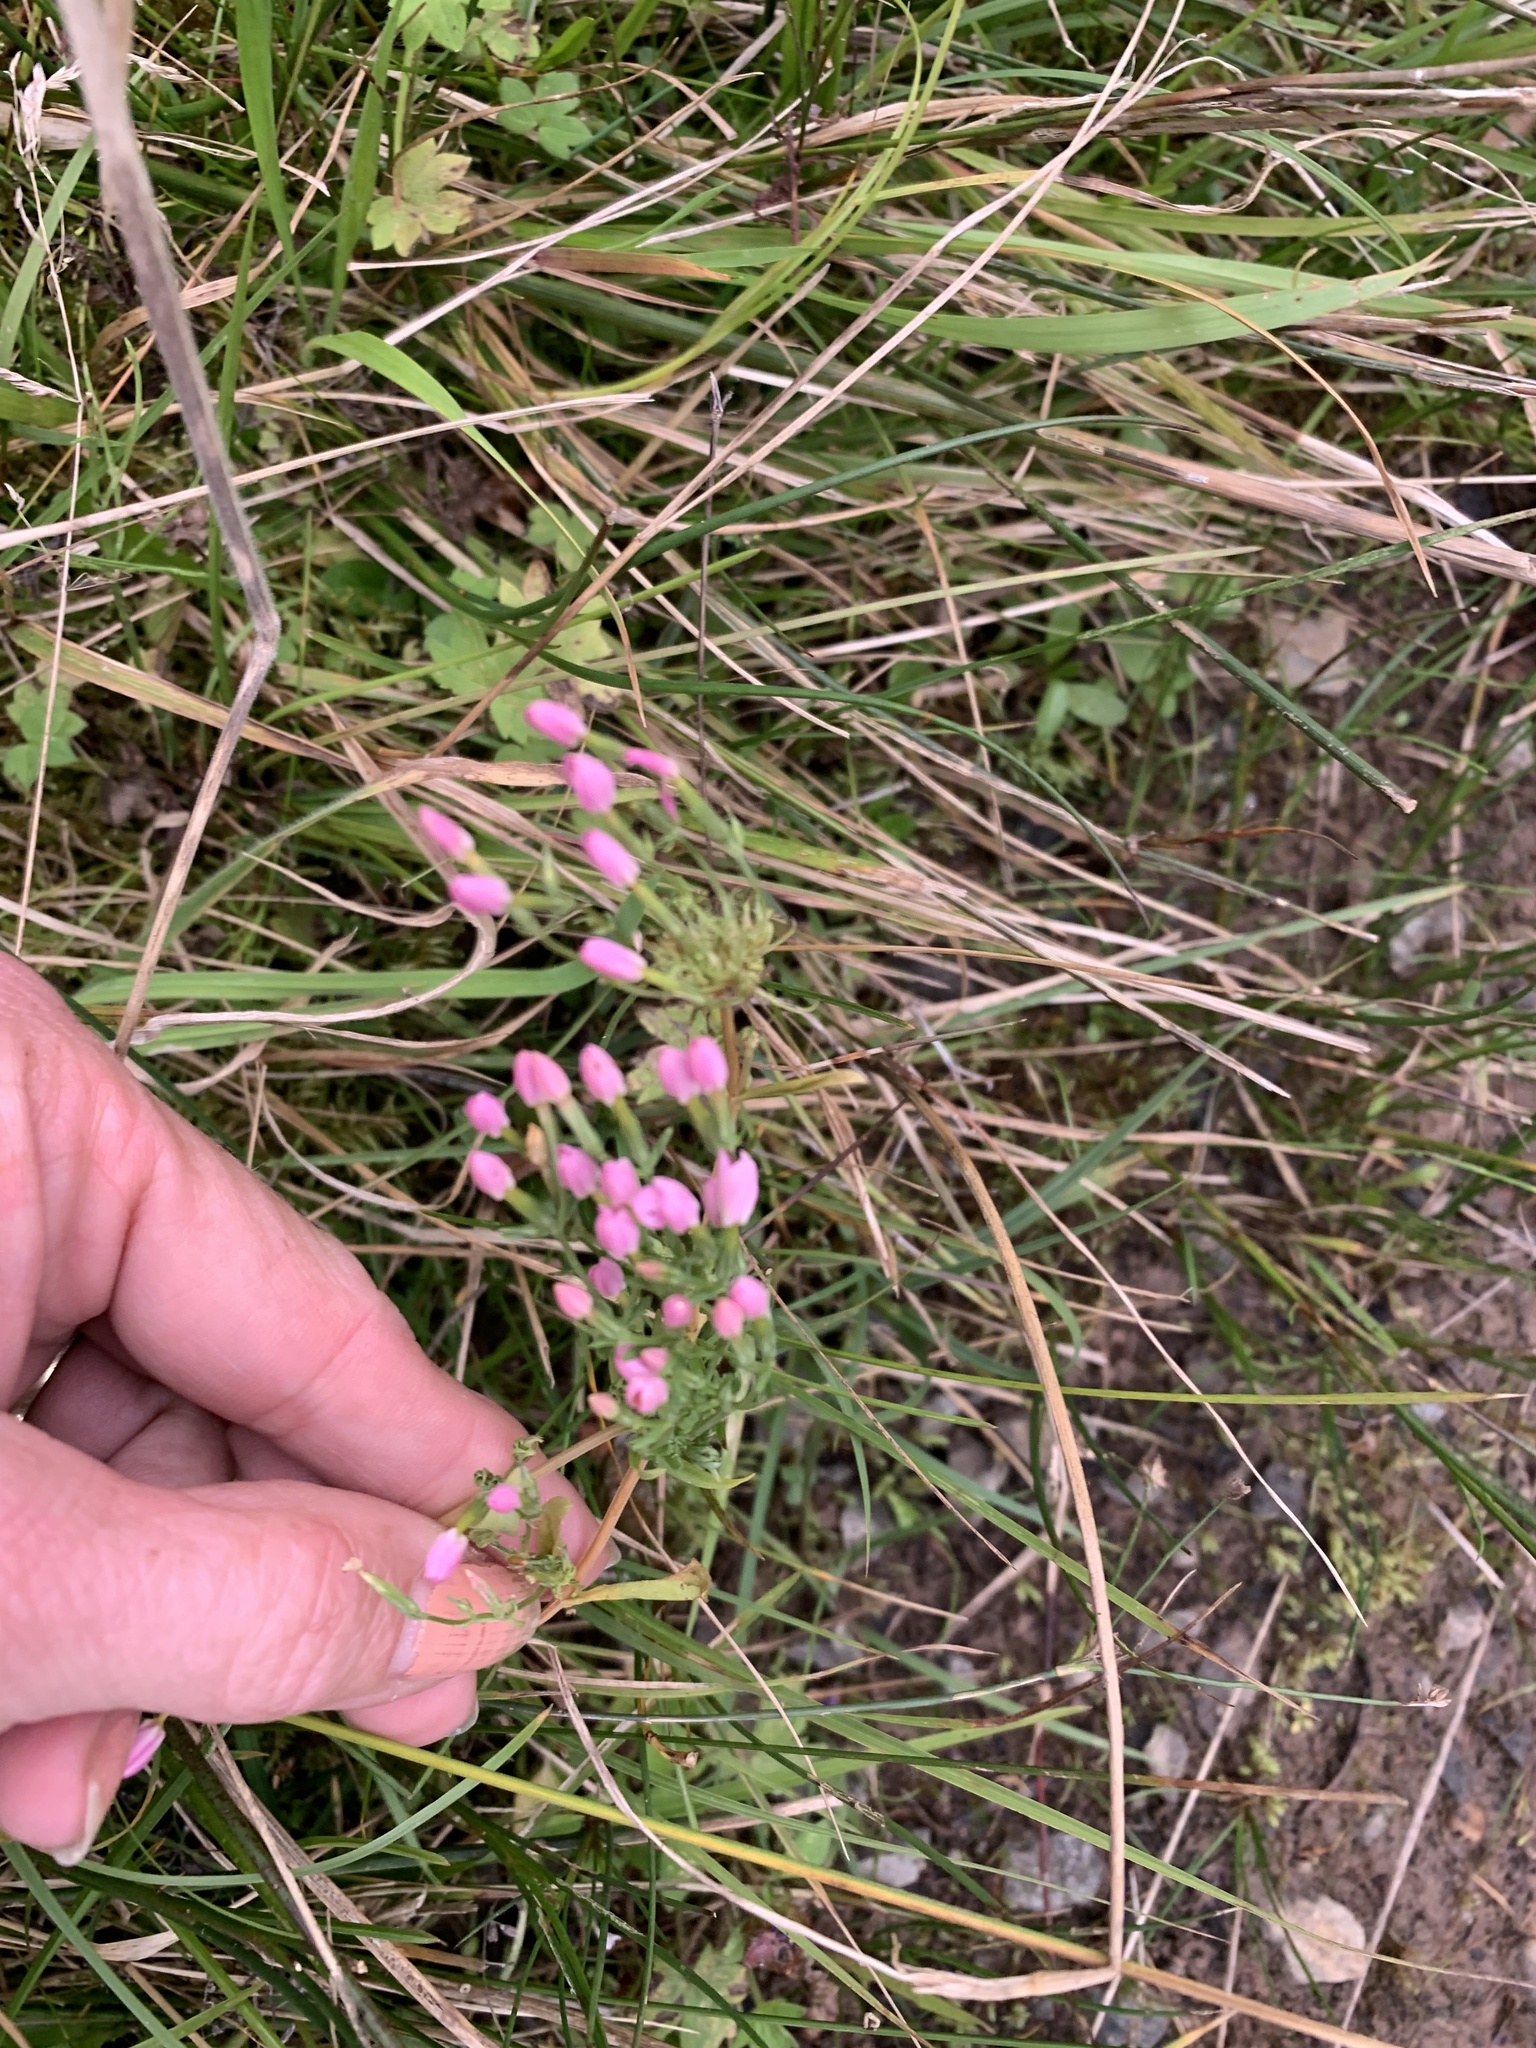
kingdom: Plantae
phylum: Tracheophyta
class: Magnoliopsida
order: Gentianales
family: Gentianaceae
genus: Centaurium
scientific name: Centaurium erythraea
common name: Common centaury
